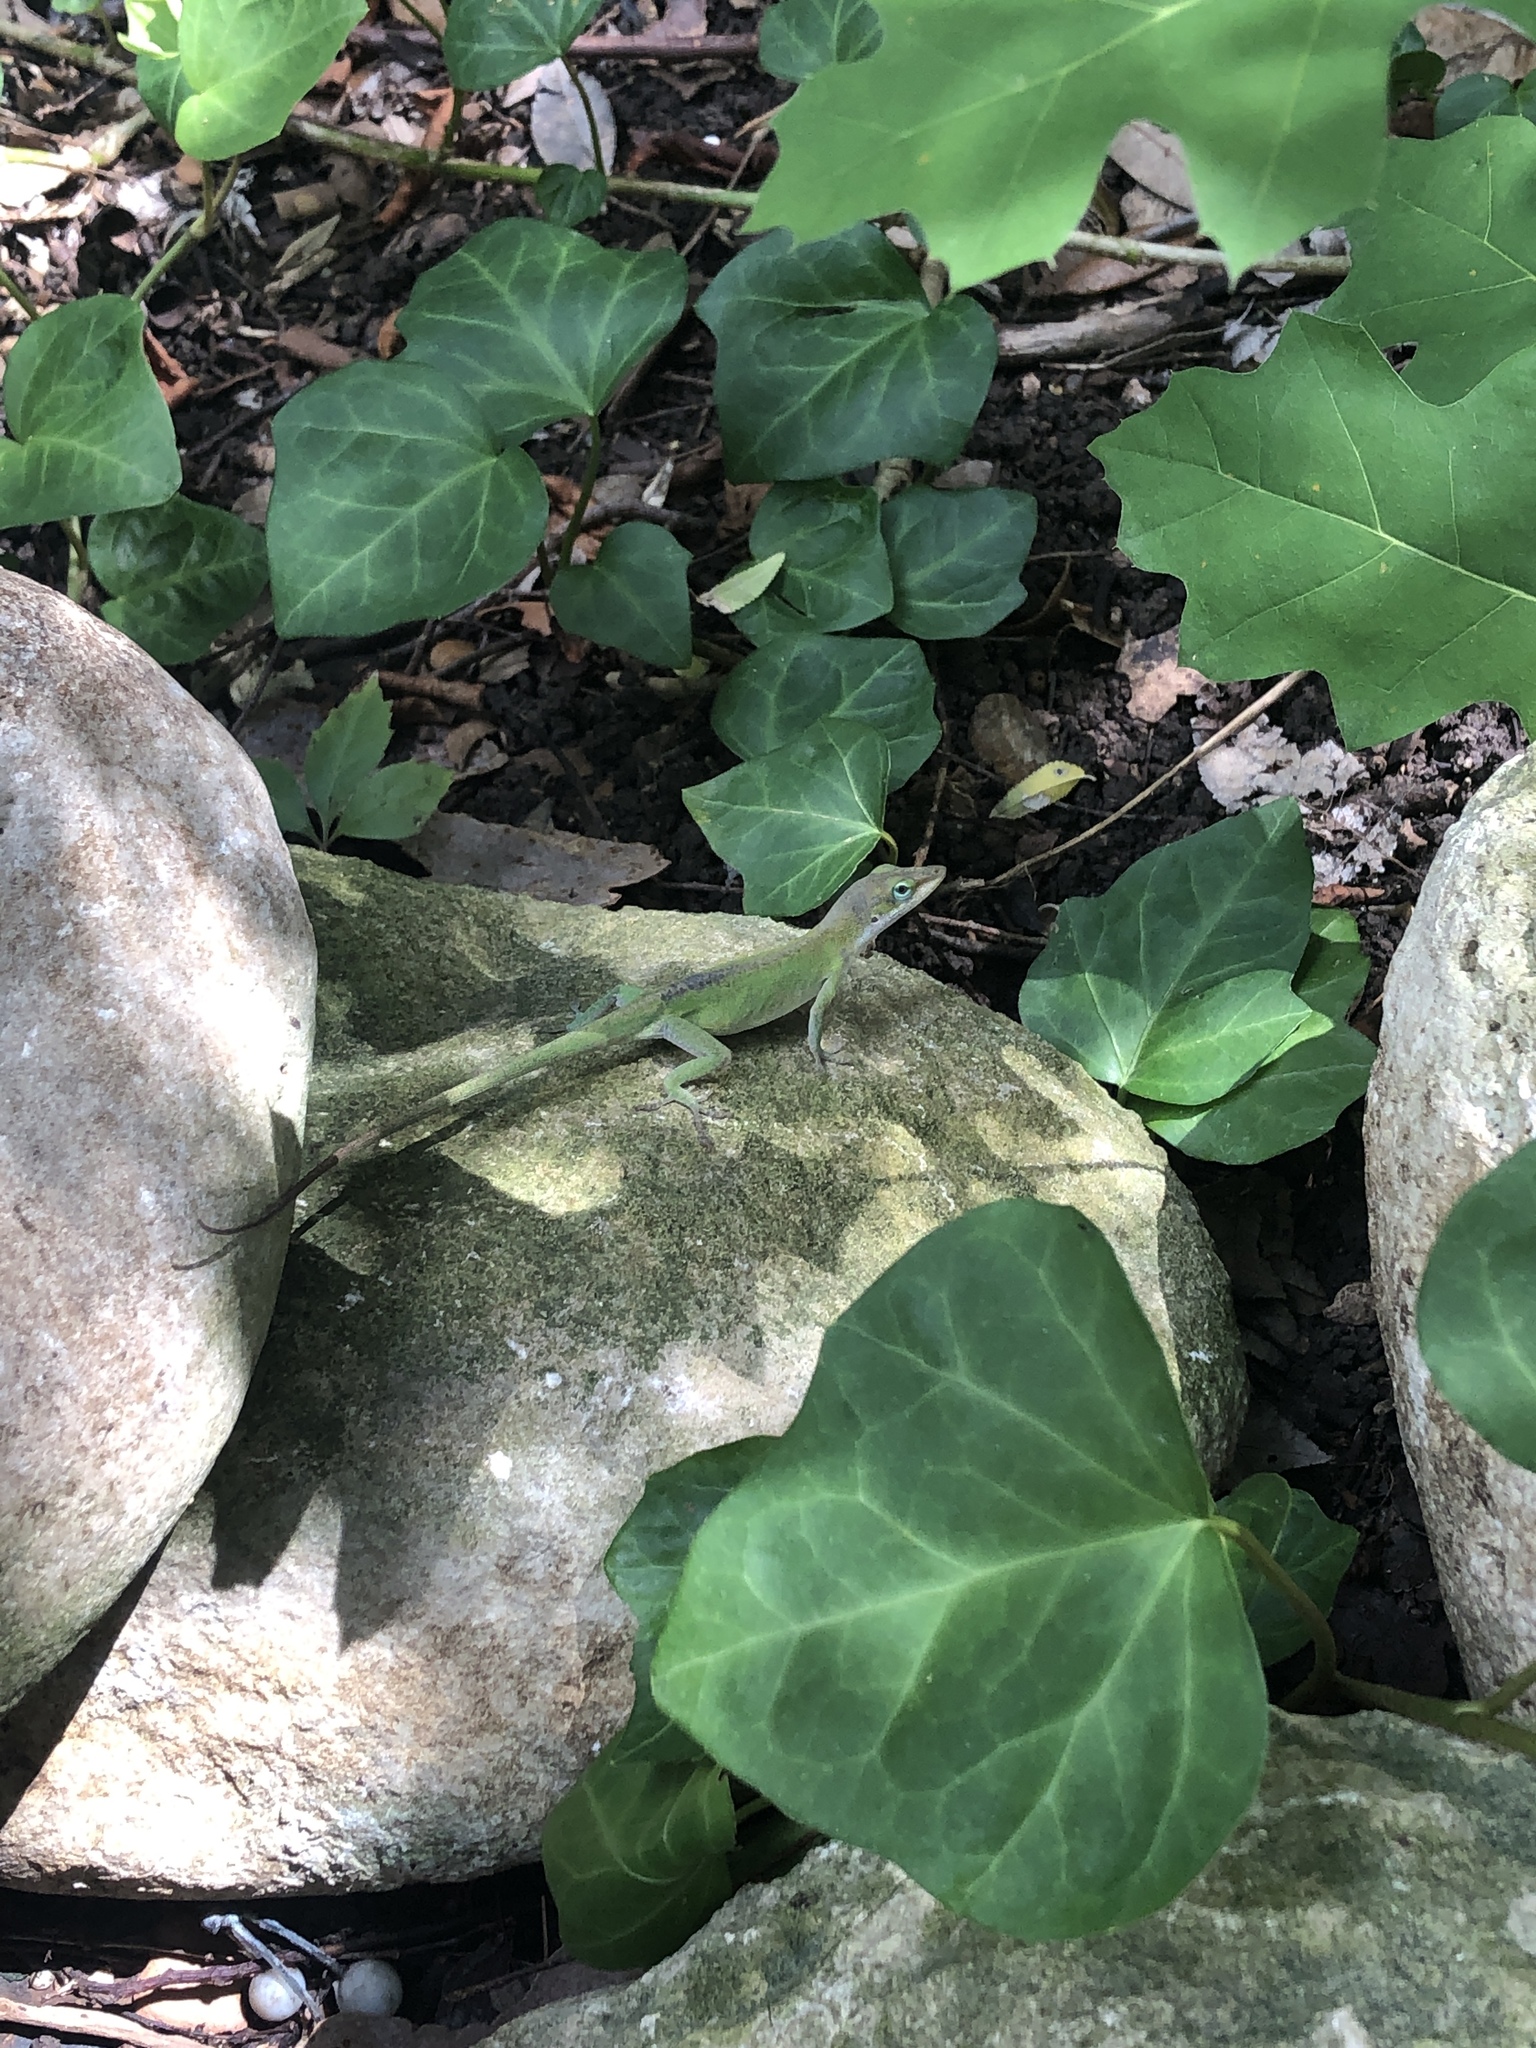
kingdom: Animalia
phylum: Chordata
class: Squamata
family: Dactyloidae
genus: Anolis
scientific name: Anolis carolinensis
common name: Green anole
